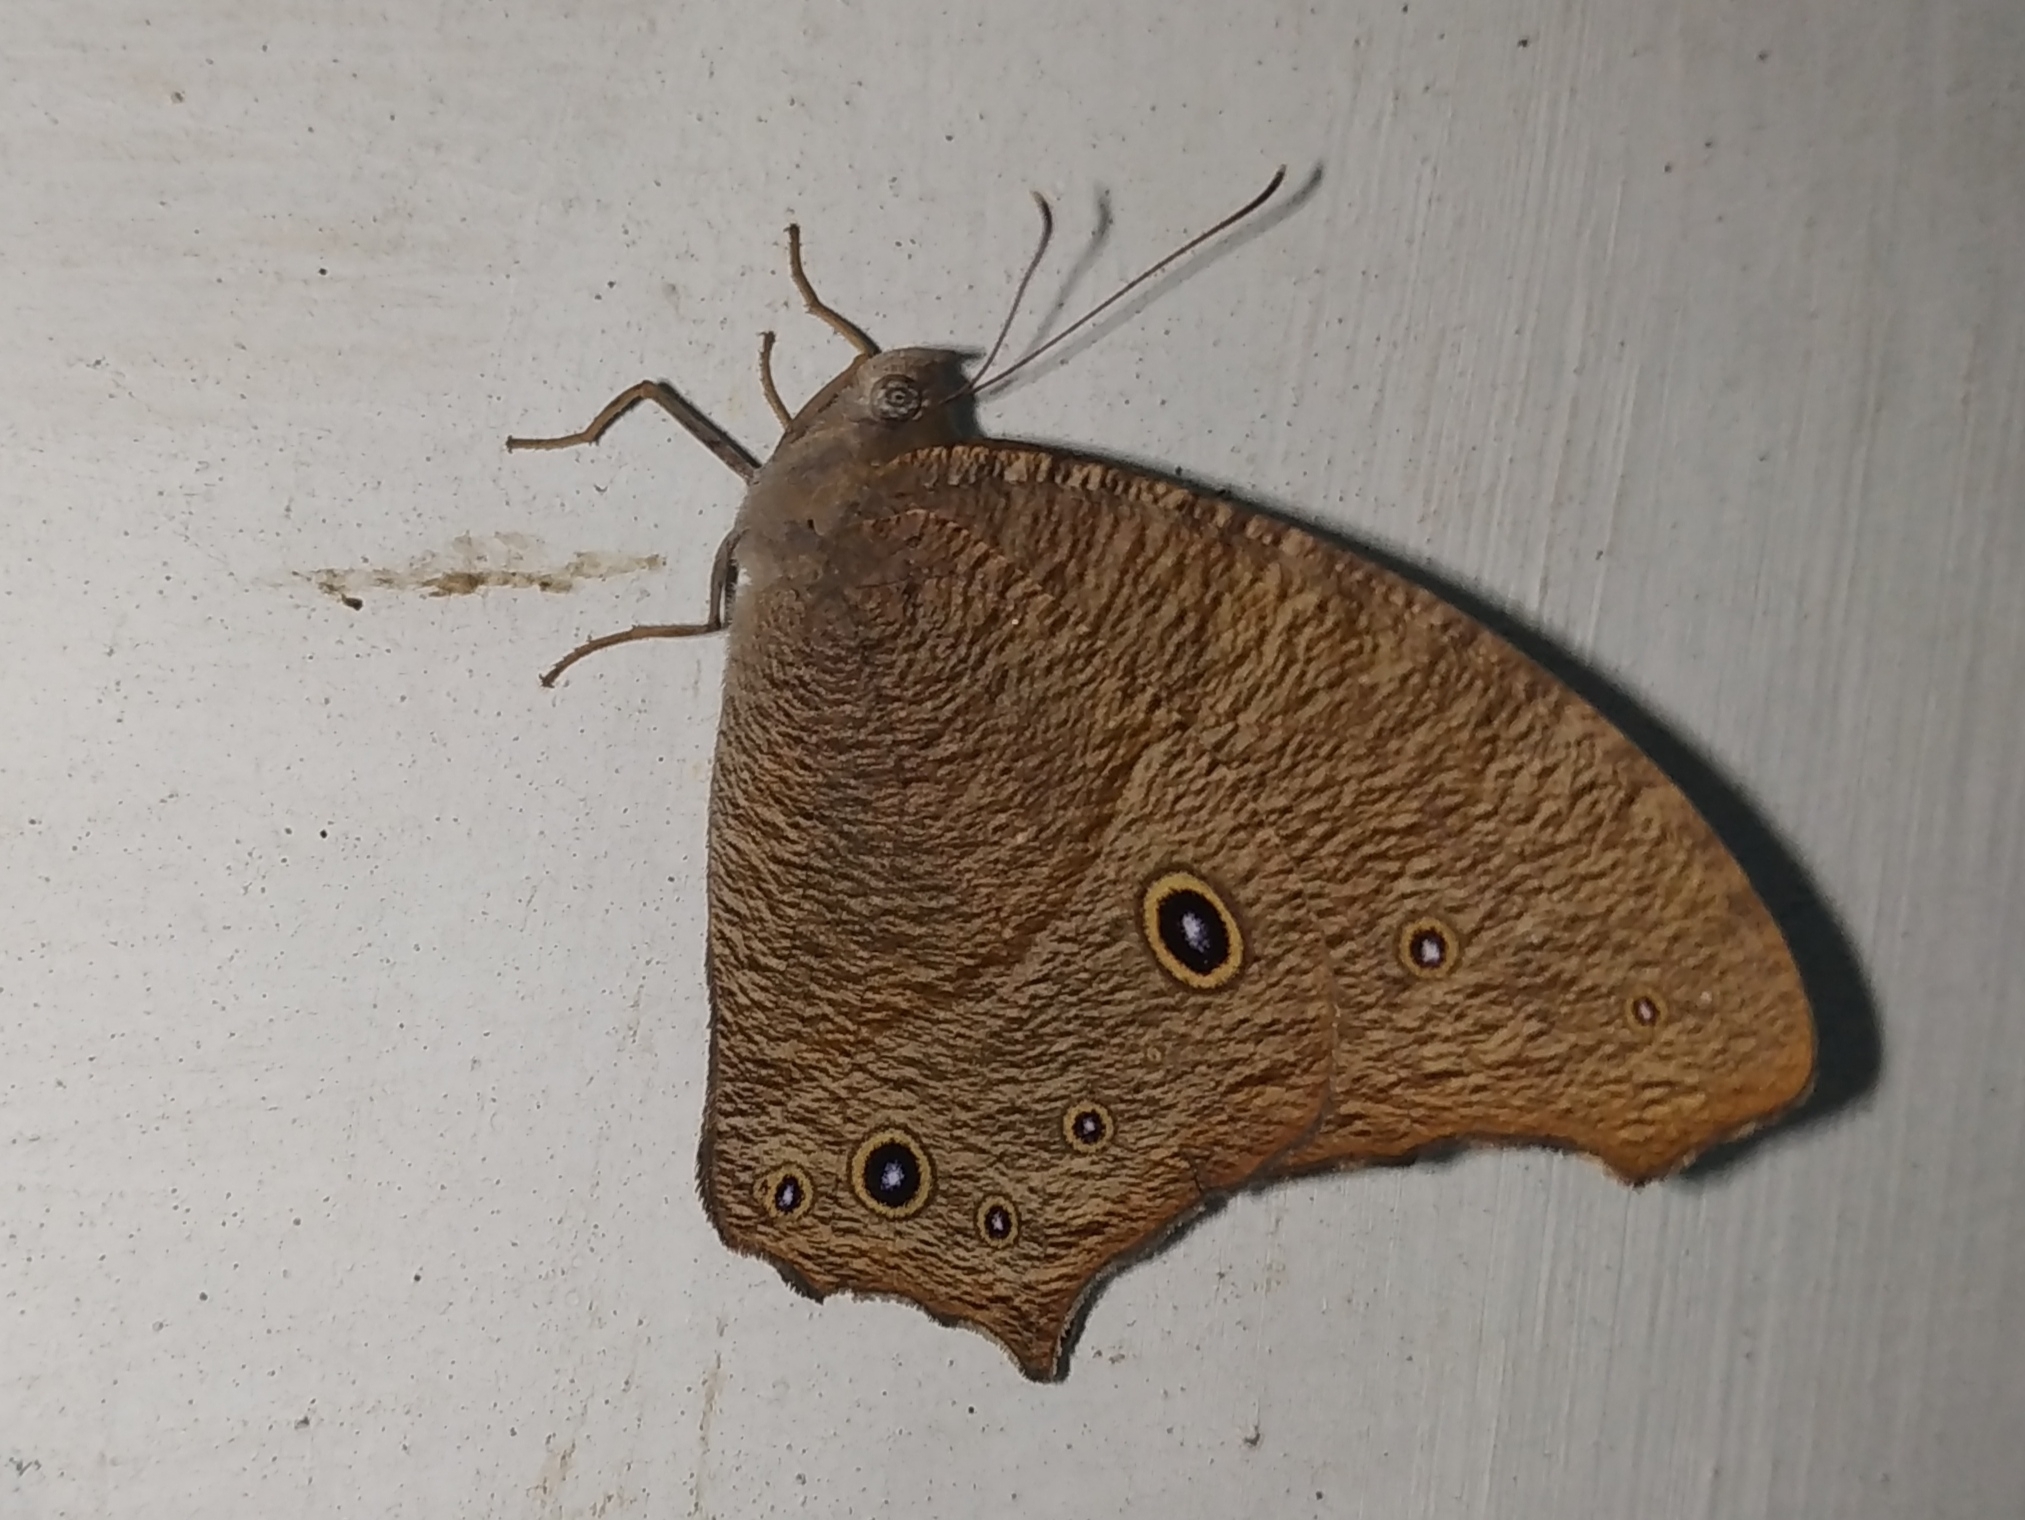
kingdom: Animalia
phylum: Arthropoda
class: Insecta
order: Lepidoptera
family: Nymphalidae
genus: Melanitis
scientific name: Melanitis leda
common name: Twilight brown
